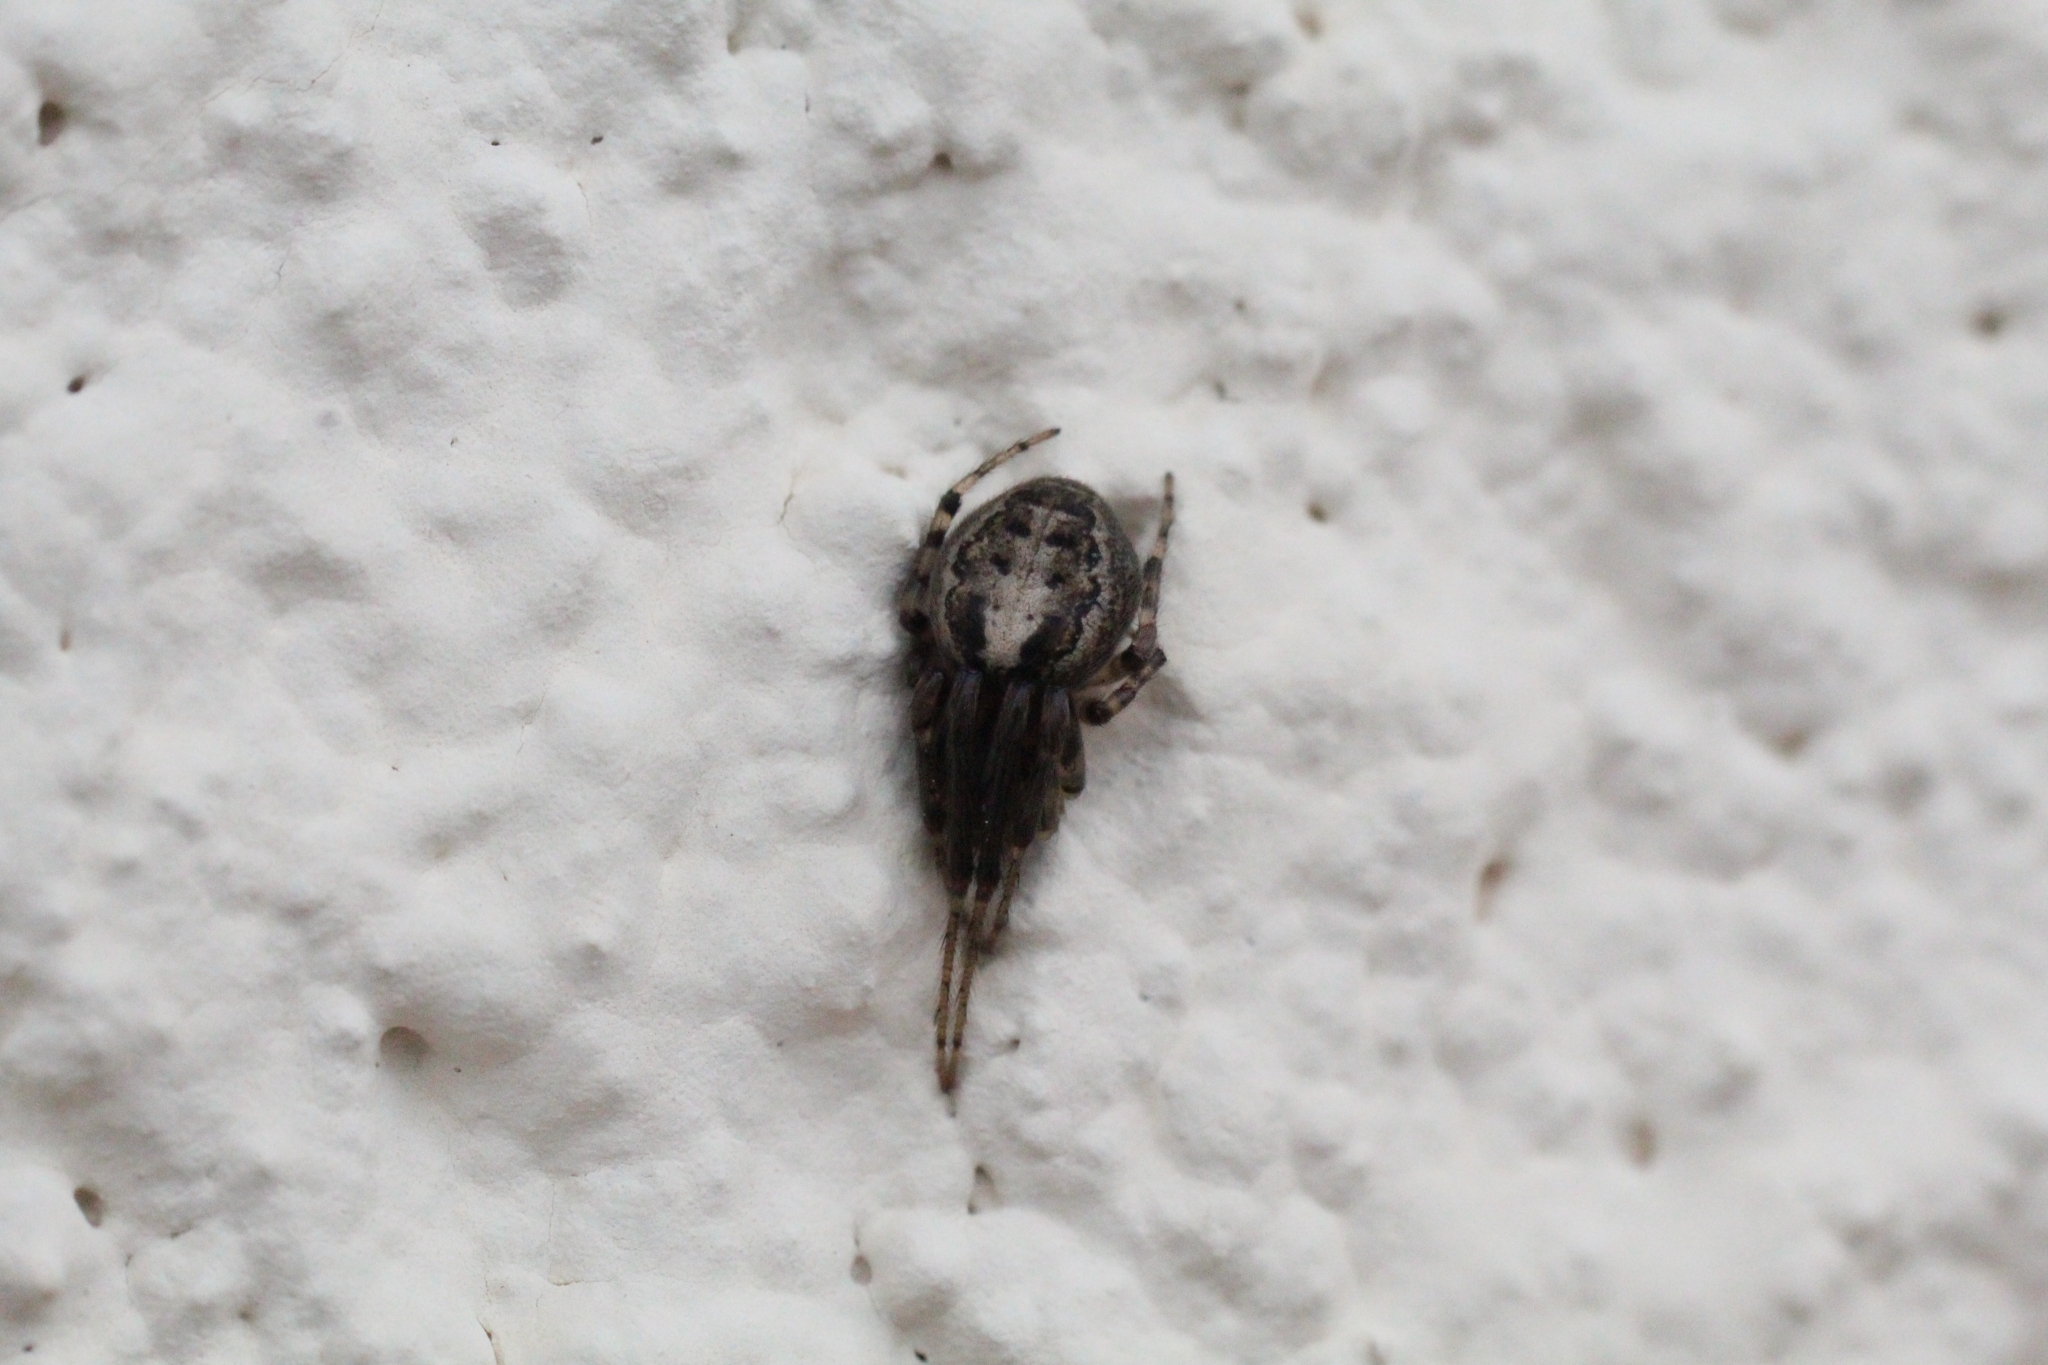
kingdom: Animalia
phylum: Arthropoda
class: Arachnida
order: Araneae
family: Araneidae
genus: Zygiella
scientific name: Zygiella x-notata
